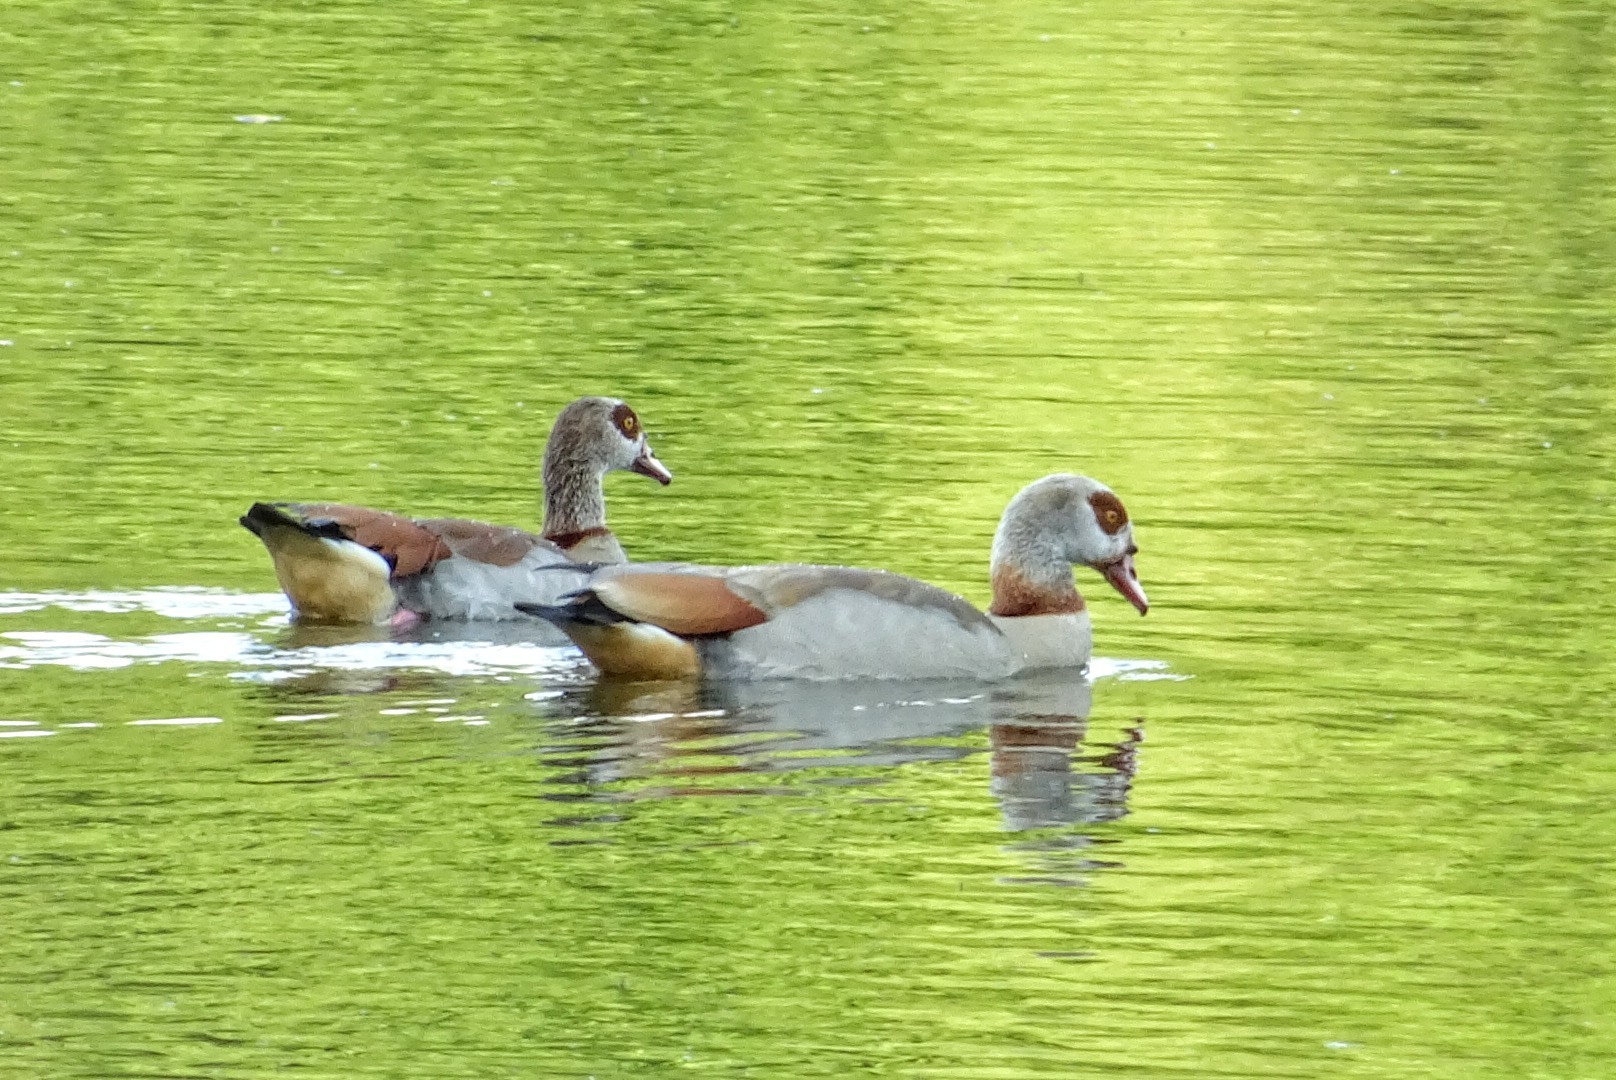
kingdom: Animalia
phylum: Chordata
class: Aves
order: Anseriformes
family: Anatidae
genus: Alopochen
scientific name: Alopochen aegyptiaca
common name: Egyptian goose
